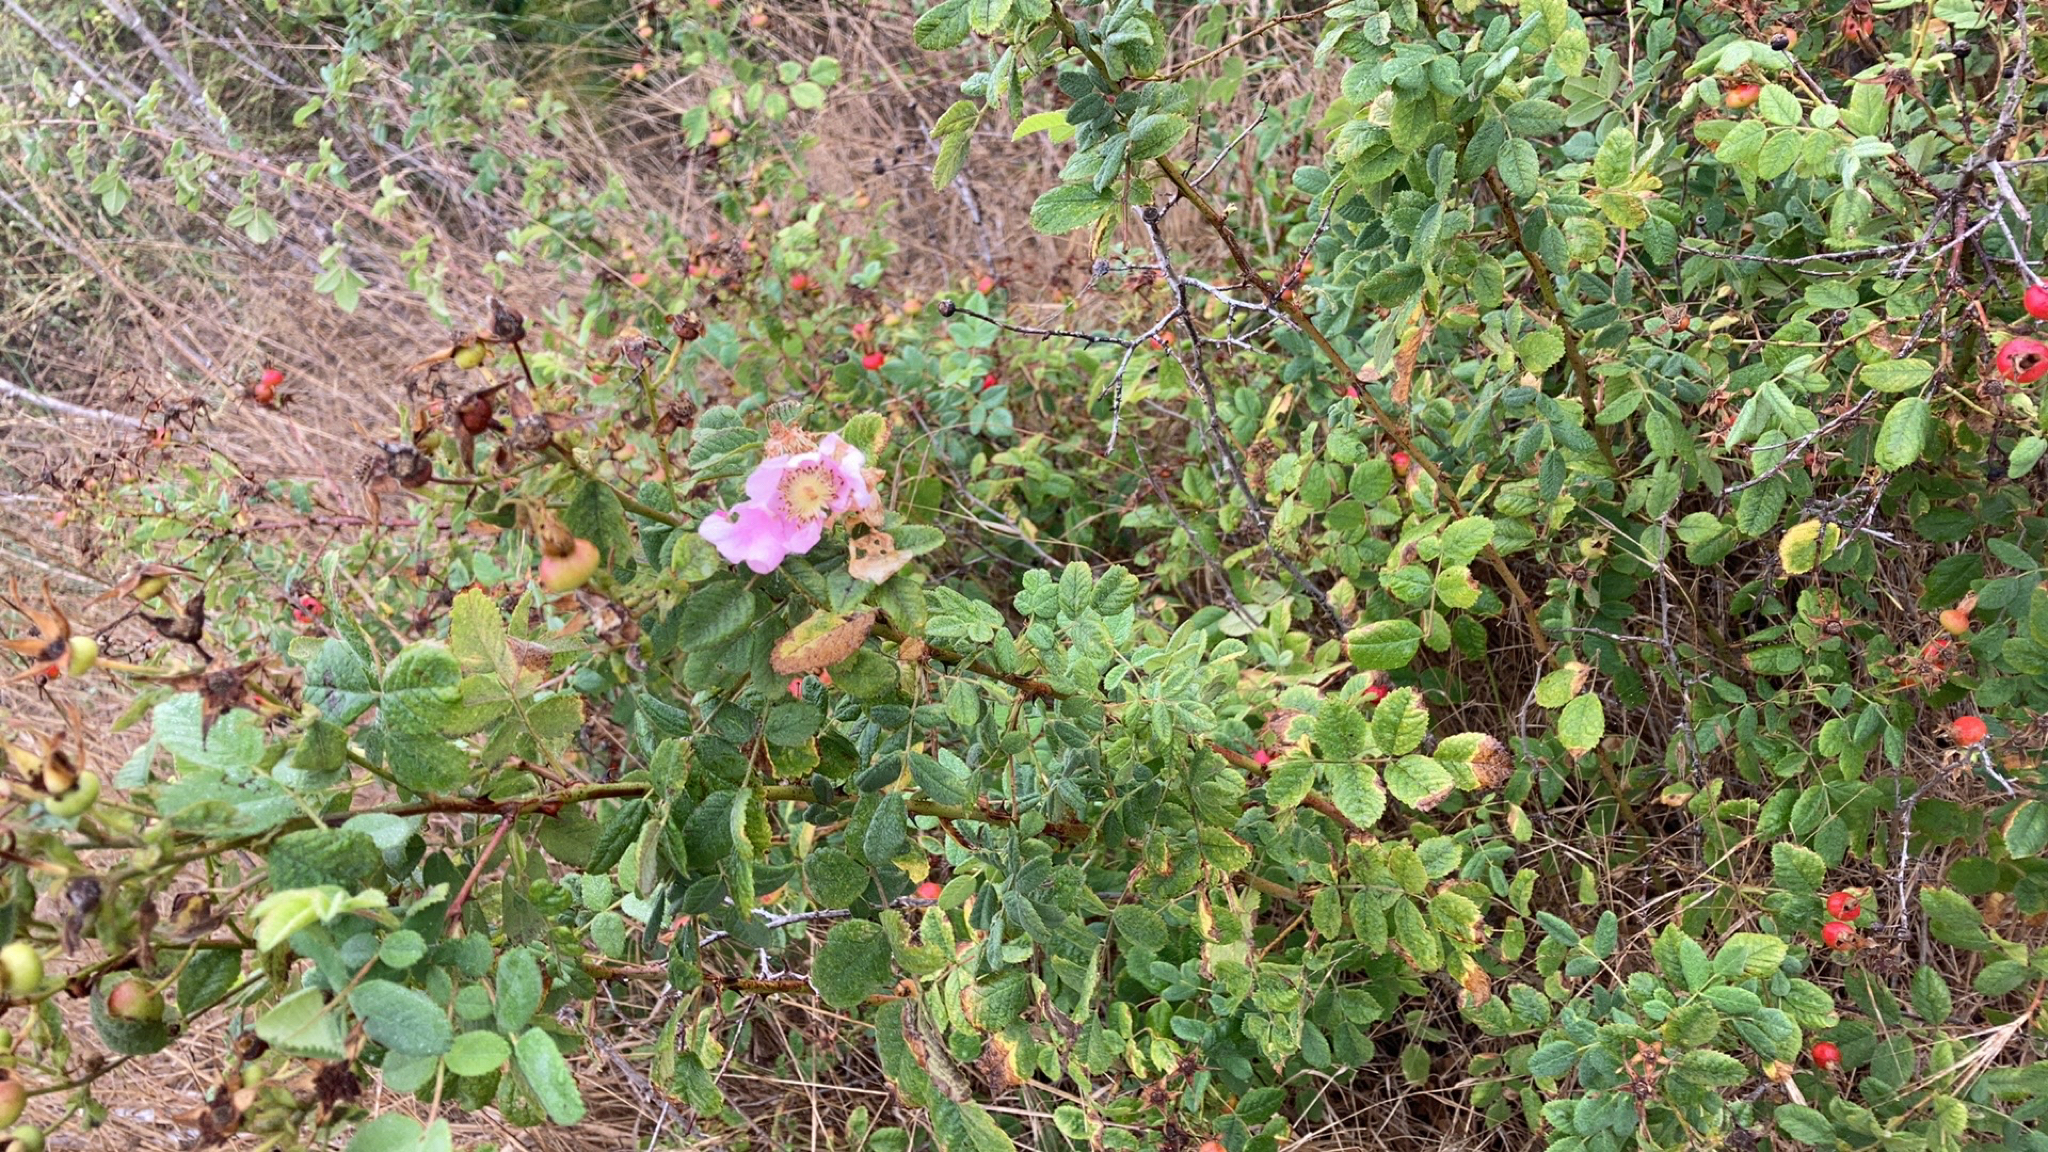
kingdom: Plantae
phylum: Tracheophyta
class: Magnoliopsida
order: Rosales
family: Rosaceae
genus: Rosa
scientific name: Rosa californica
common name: California rose
